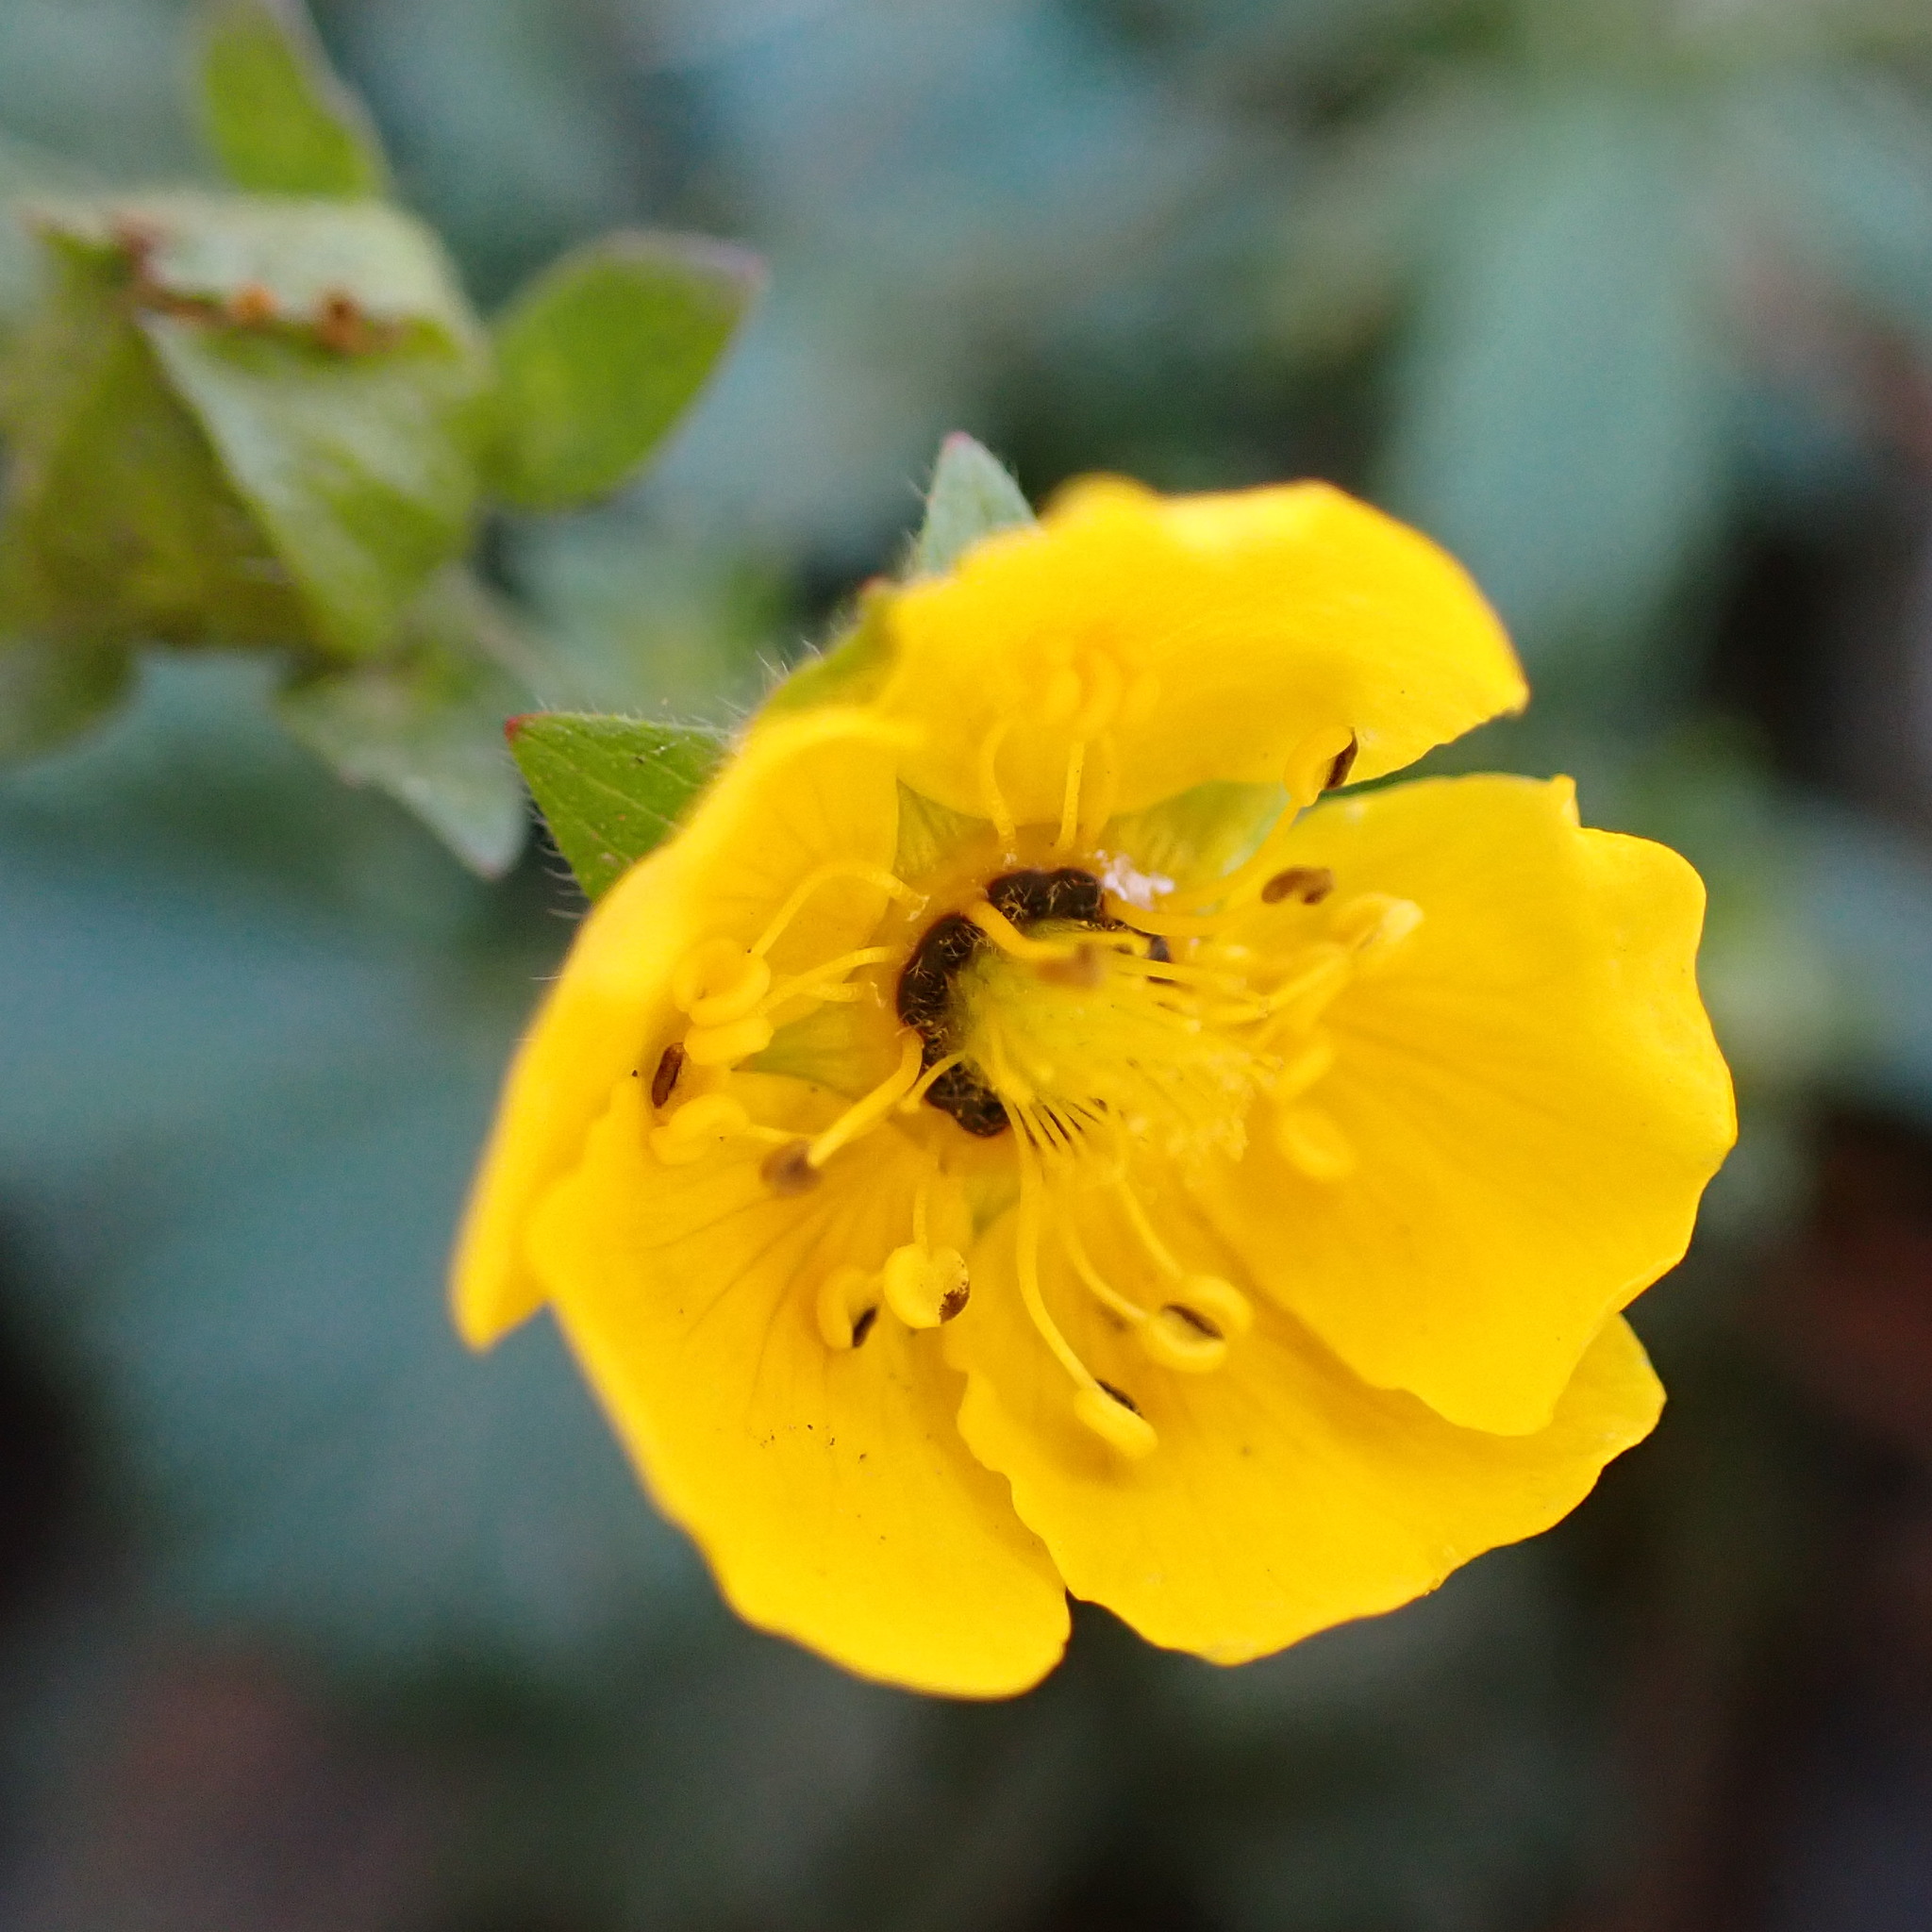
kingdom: Plantae
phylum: Tracheophyta
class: Magnoliopsida
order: Rosales
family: Rosaceae
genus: Potentilla
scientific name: Potentilla flabellifolia
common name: Mount rainier cinquefoil
